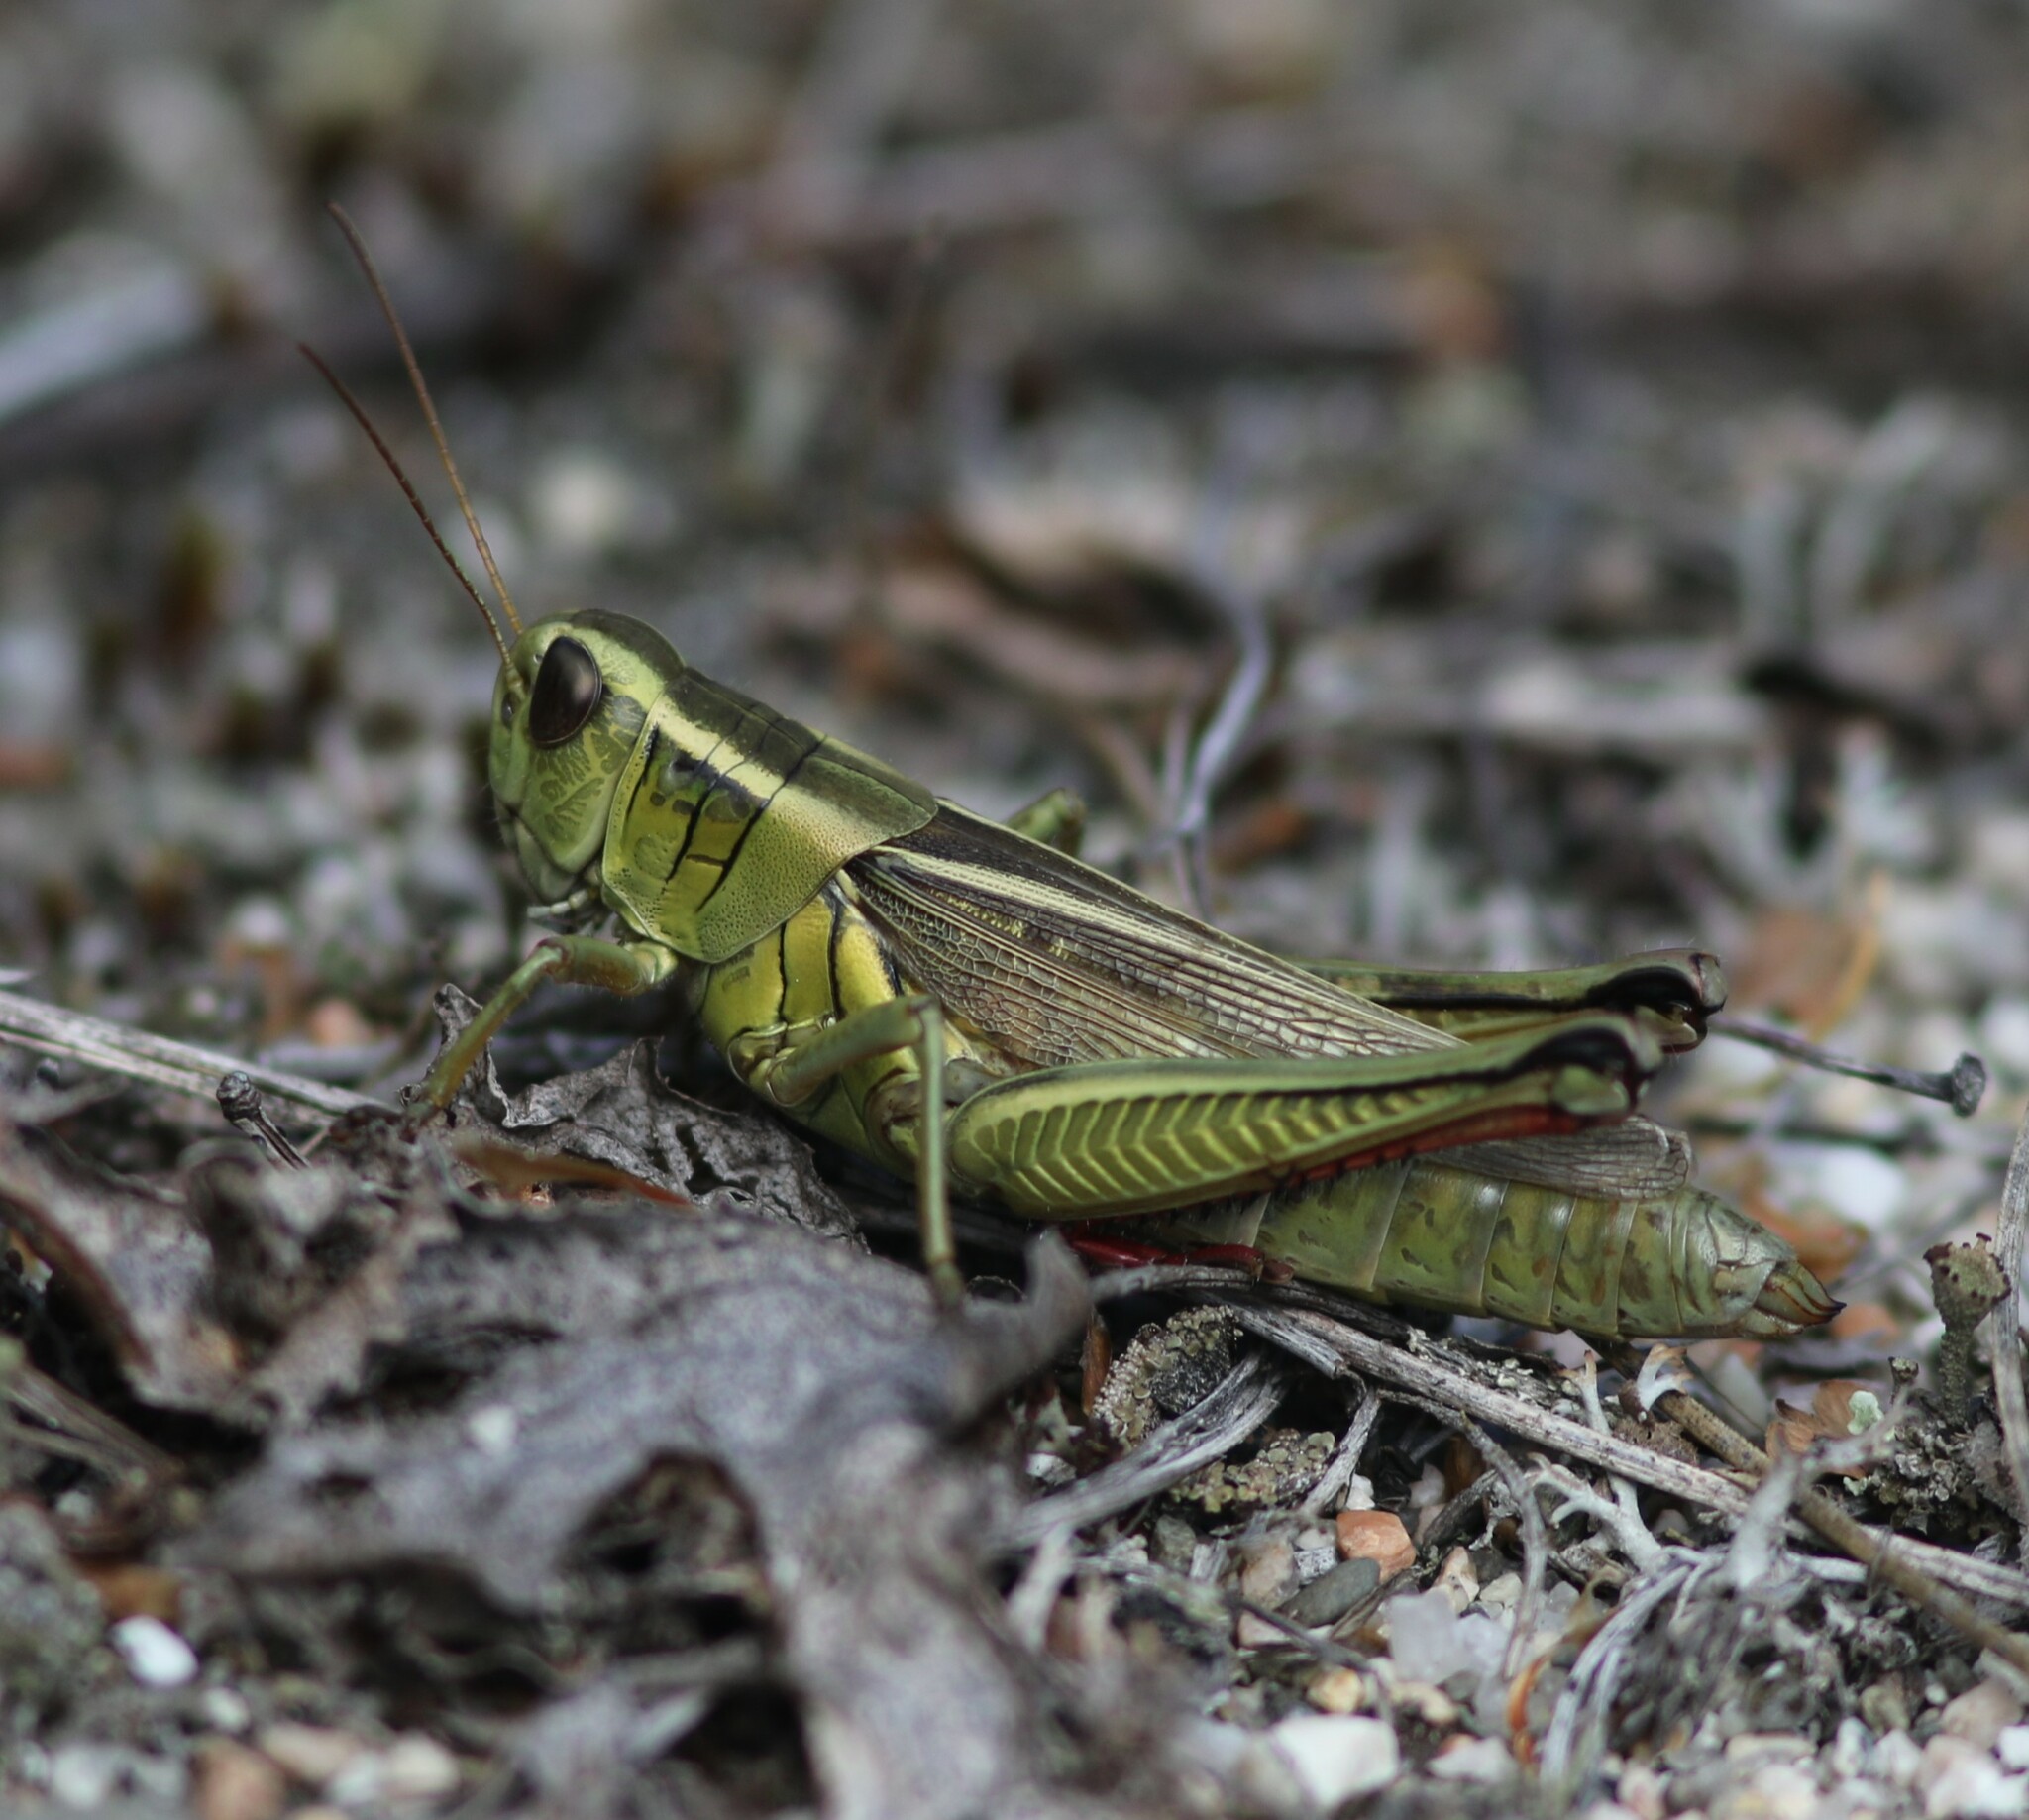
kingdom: Animalia
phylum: Arthropoda
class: Insecta
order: Orthoptera
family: Acrididae
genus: Melanoplus
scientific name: Melanoplus bivittatus
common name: Two-striped grasshopper
